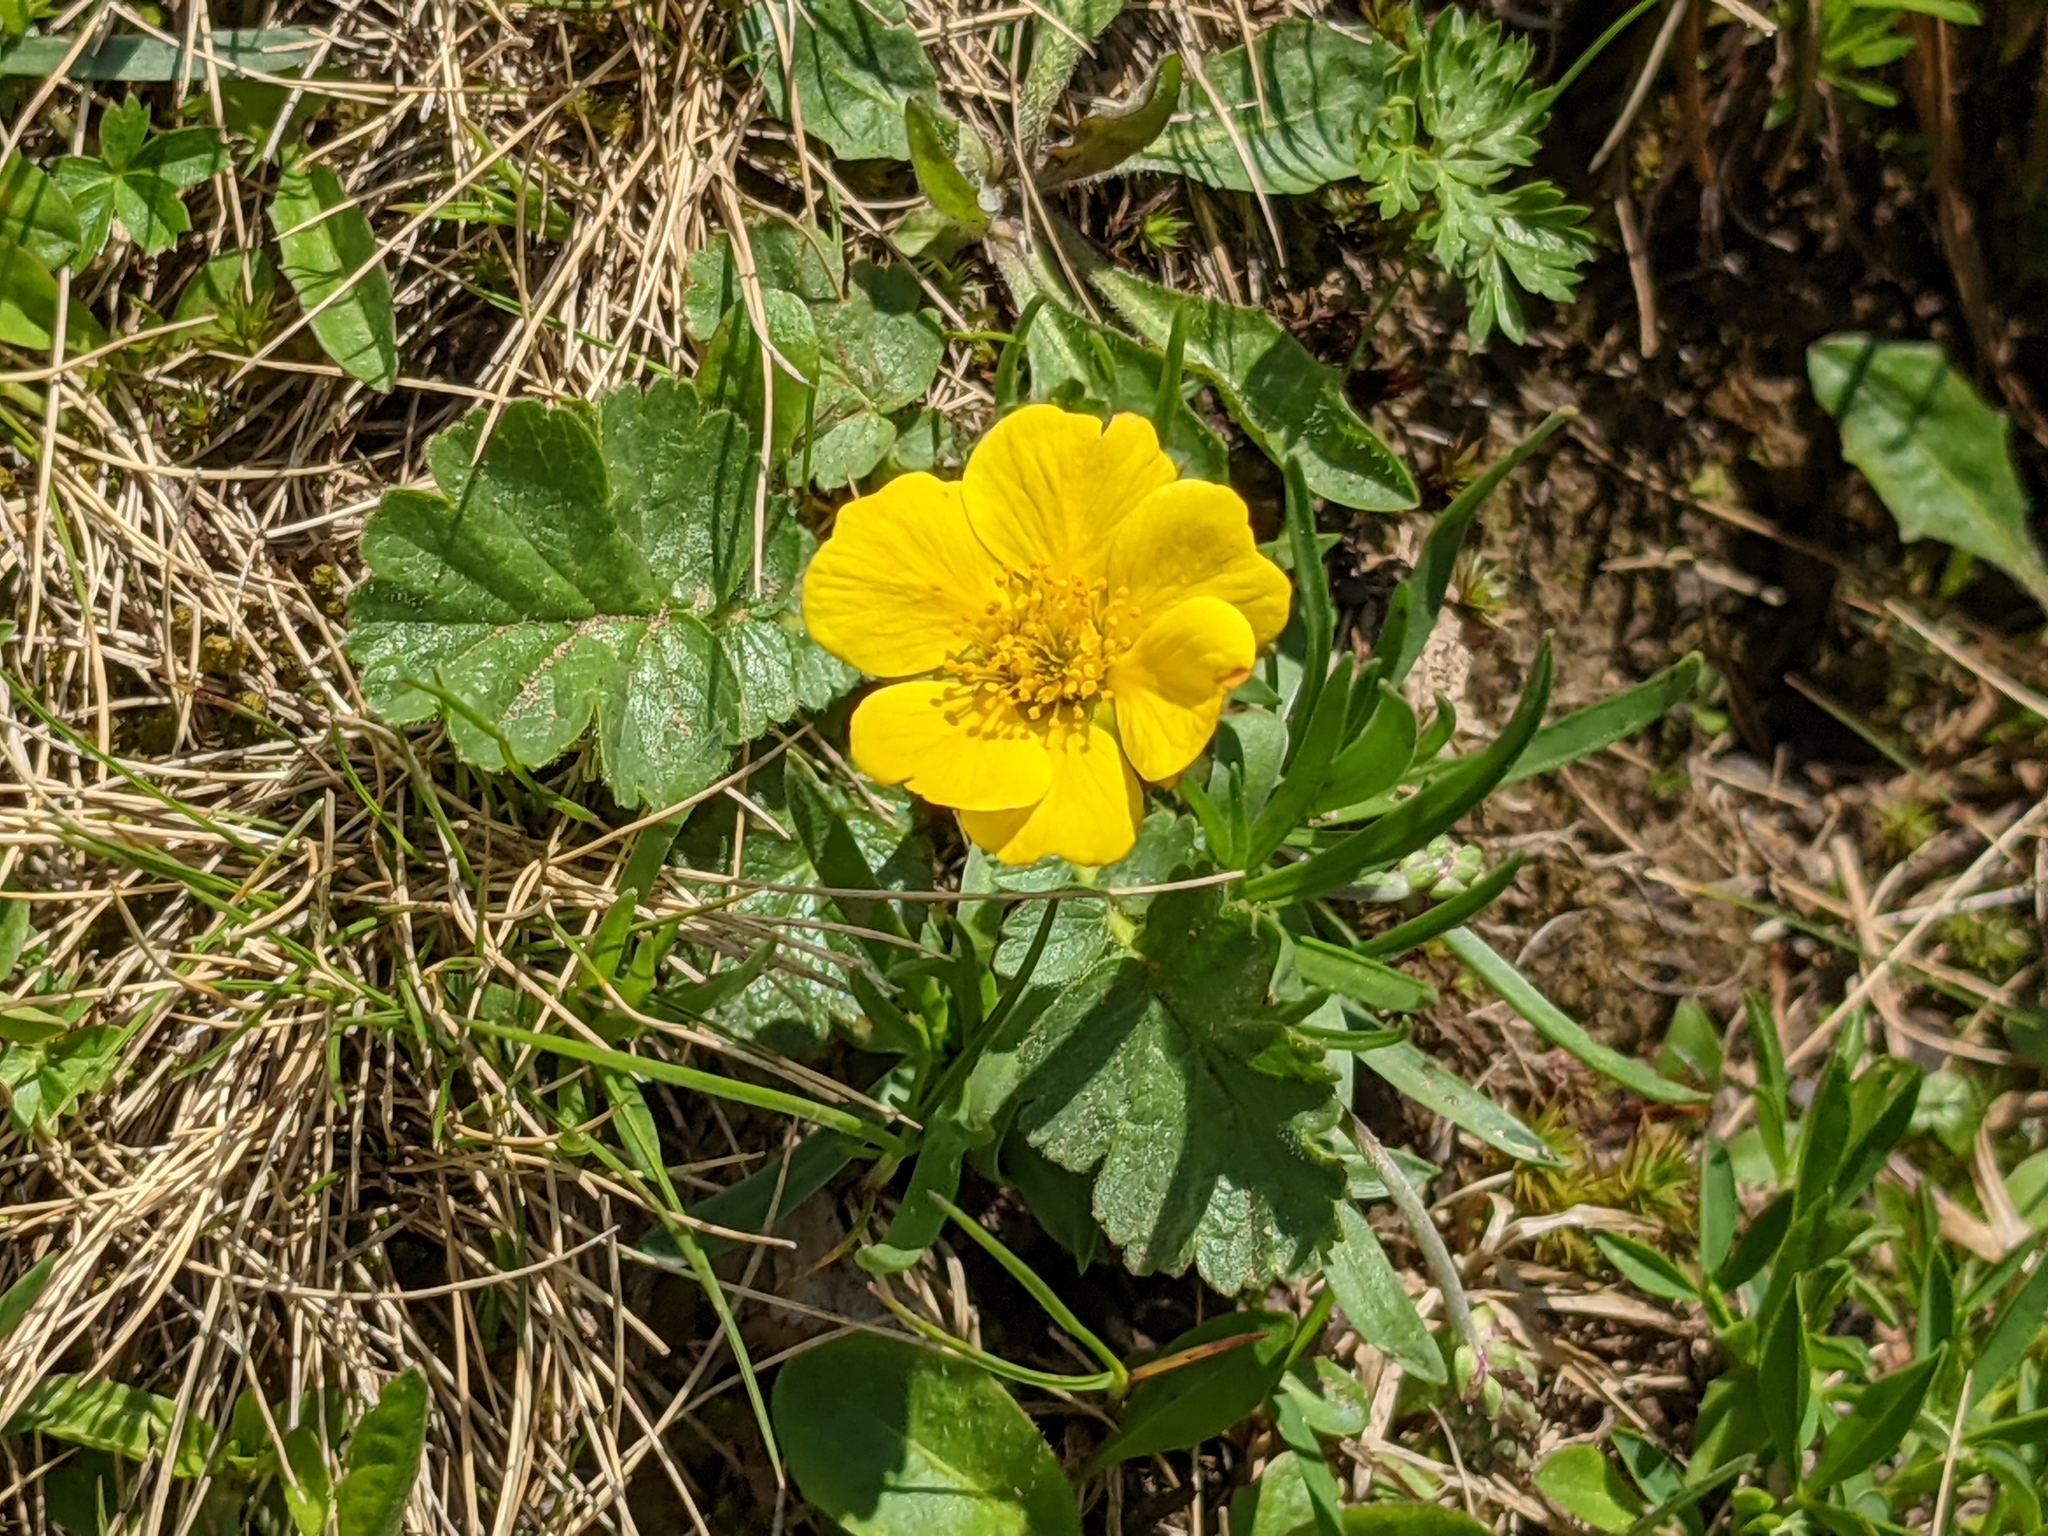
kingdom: Plantae
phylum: Tracheophyta
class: Magnoliopsida
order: Rosales
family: Rosaceae
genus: Geum
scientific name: Geum montanum
